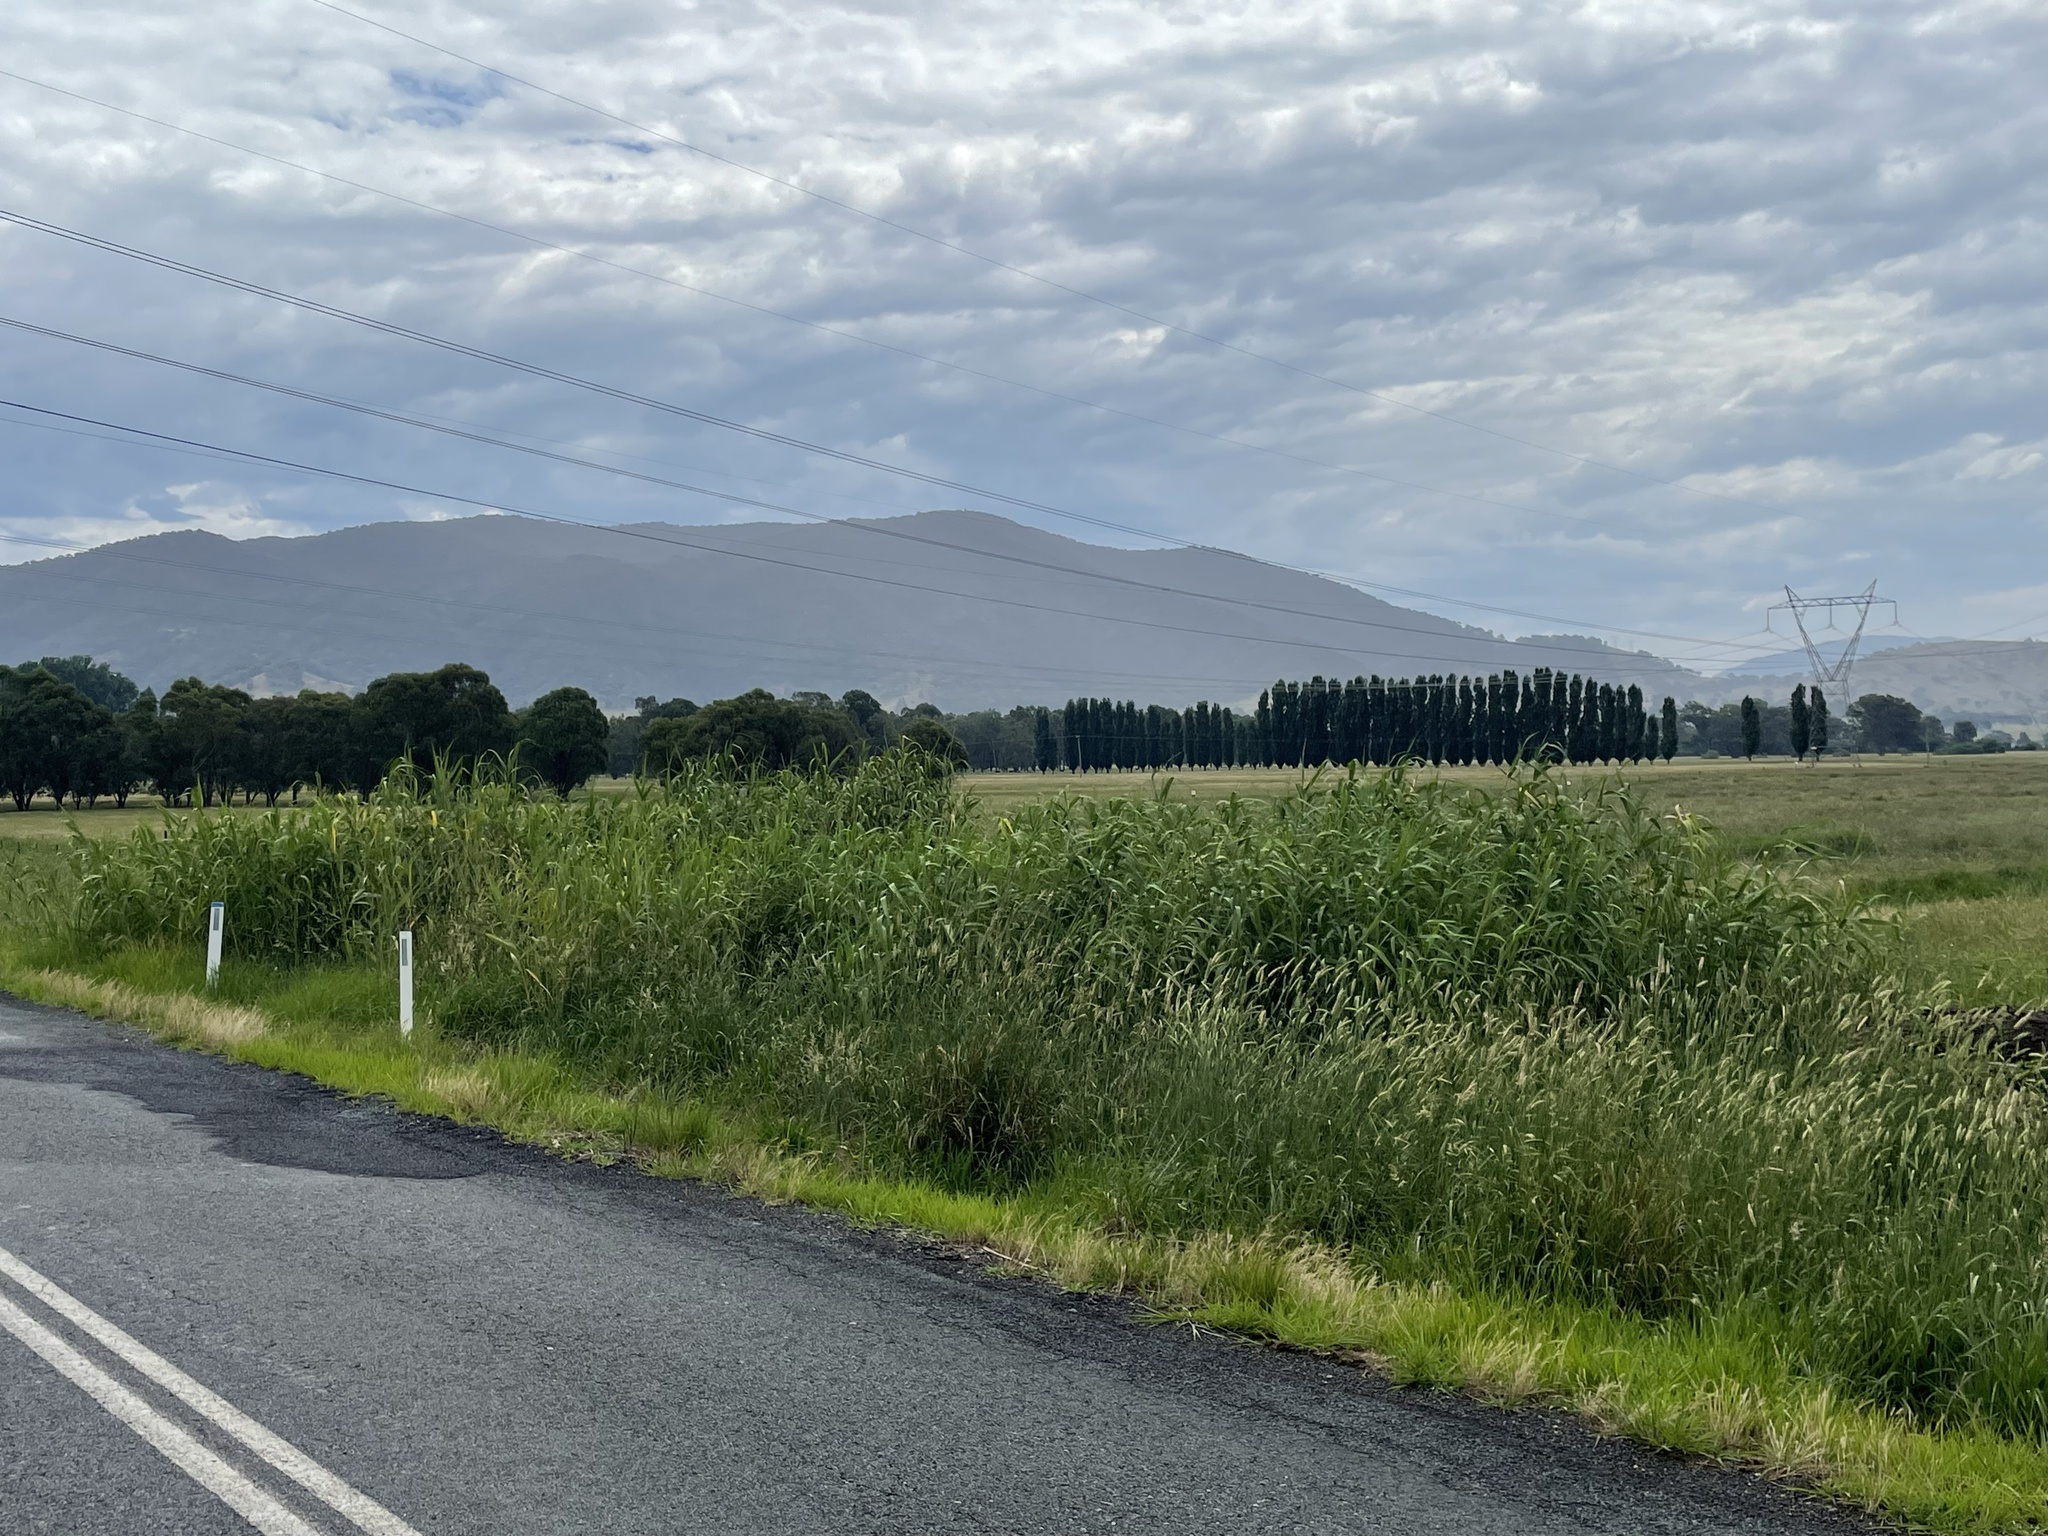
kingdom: Plantae
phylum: Tracheophyta
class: Liliopsida
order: Poales
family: Poaceae
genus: Phragmites
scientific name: Phragmites australis
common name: Common reed
